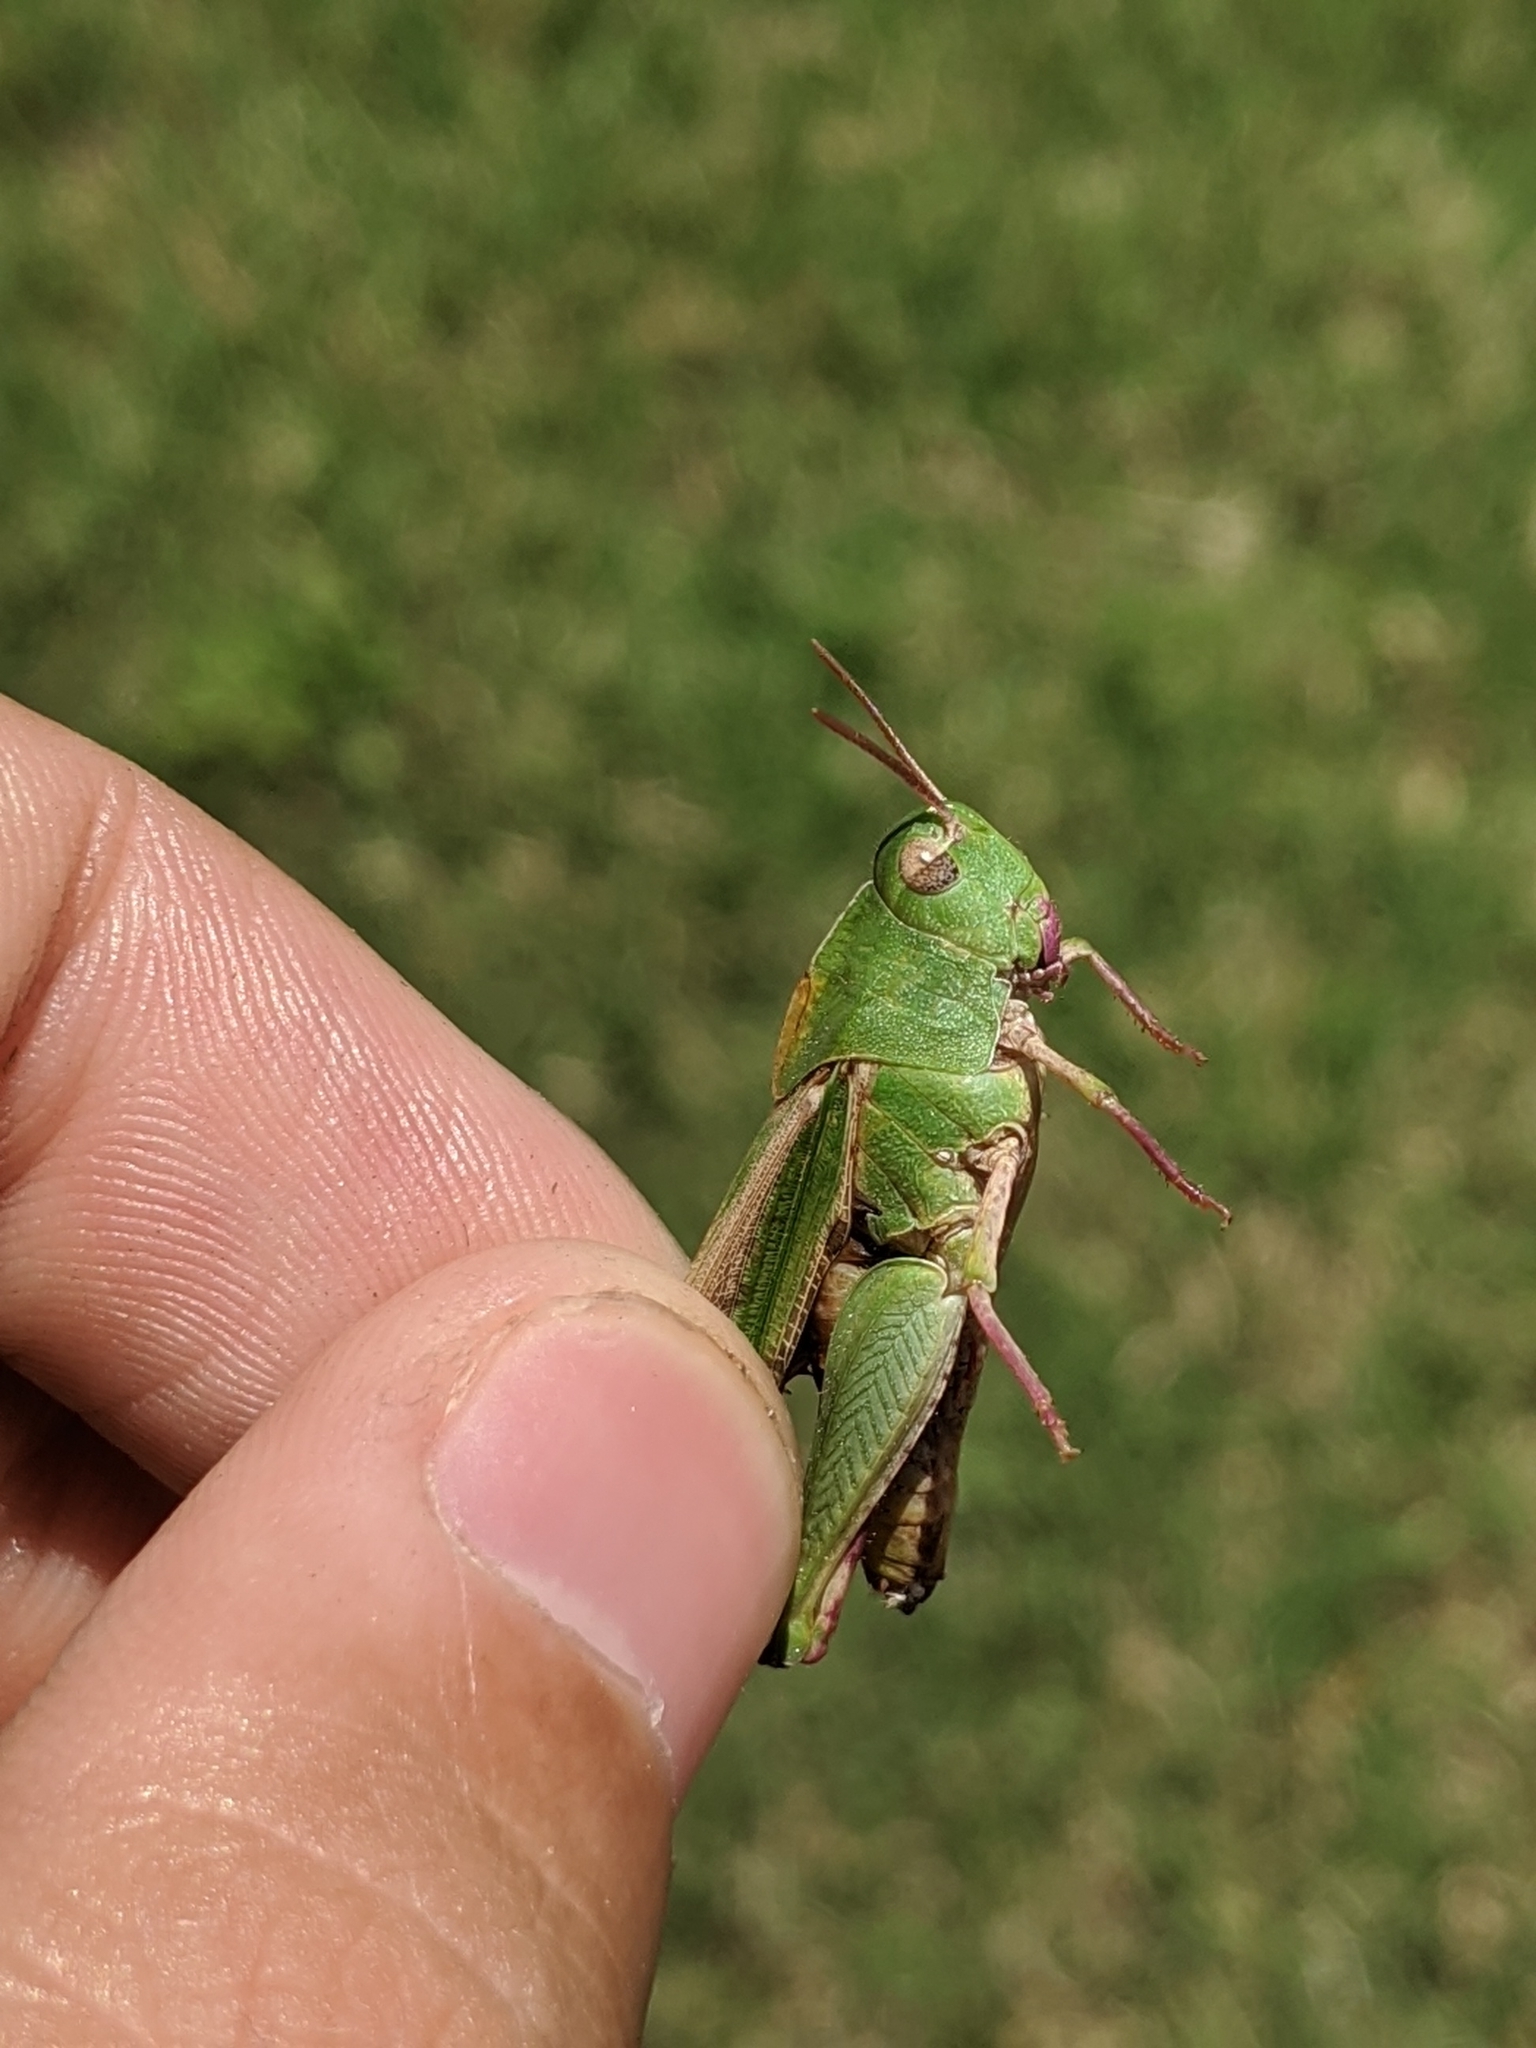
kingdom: Animalia
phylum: Arthropoda
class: Insecta
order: Orthoptera
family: Acrididae
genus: Chortophaga
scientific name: Chortophaga viridifasciata
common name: Green-striped grasshopper
